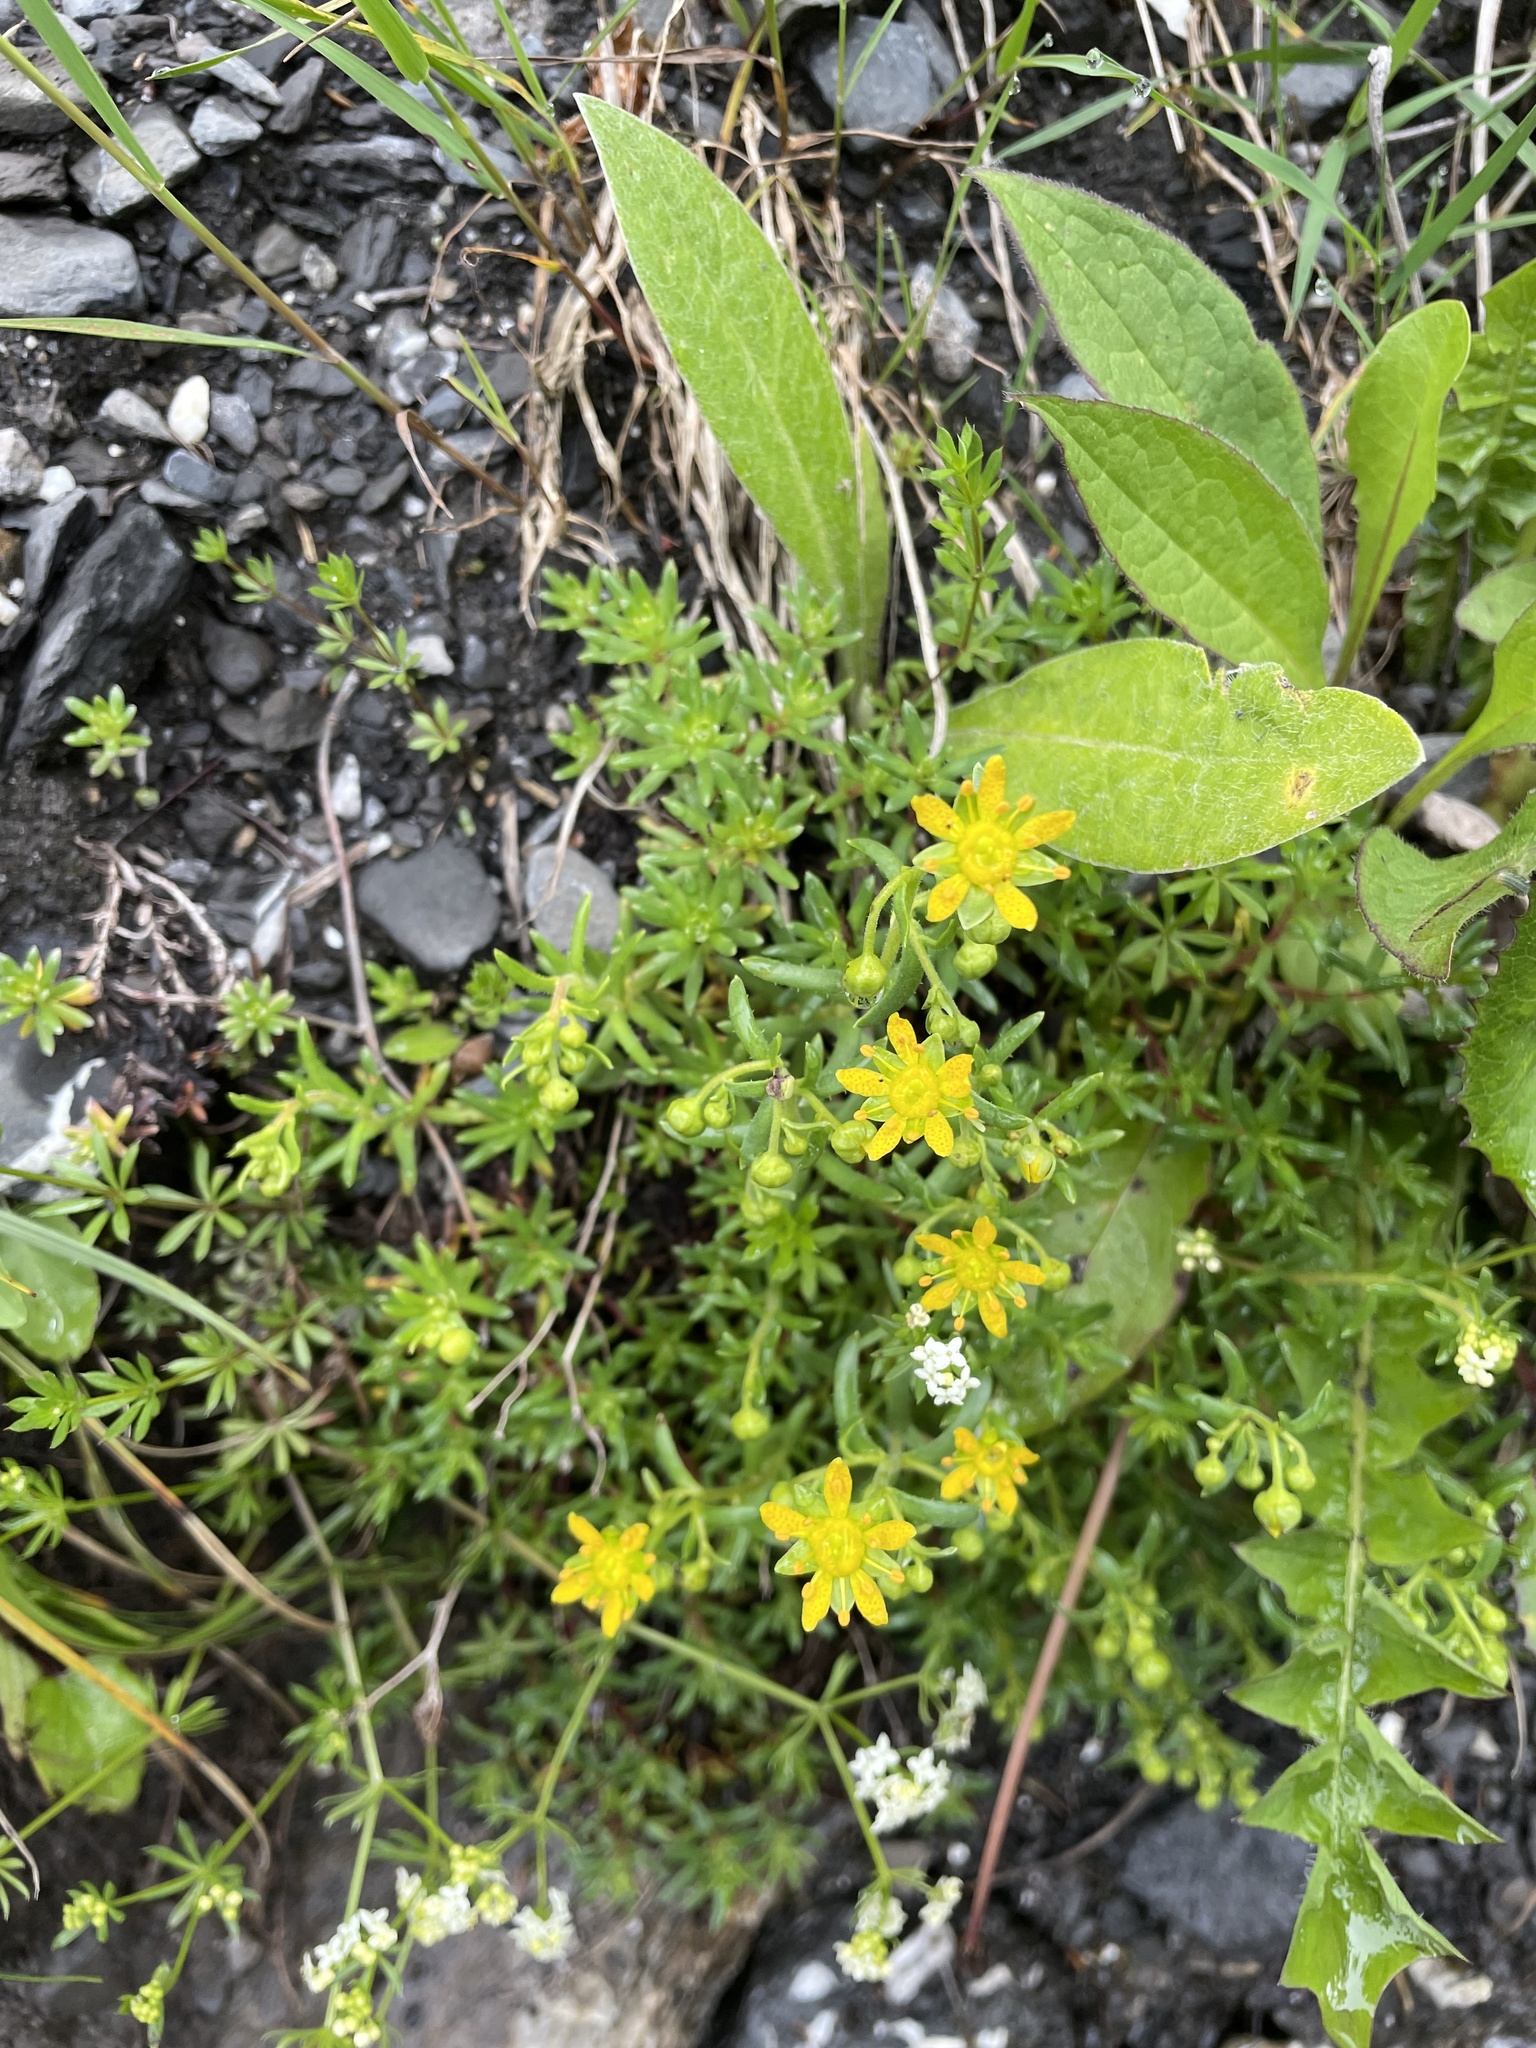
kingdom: Plantae
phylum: Tracheophyta
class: Magnoliopsida
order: Saxifragales
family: Saxifragaceae
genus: Saxifraga
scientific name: Saxifraga aizoides
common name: Yellow mountain saxifrage
